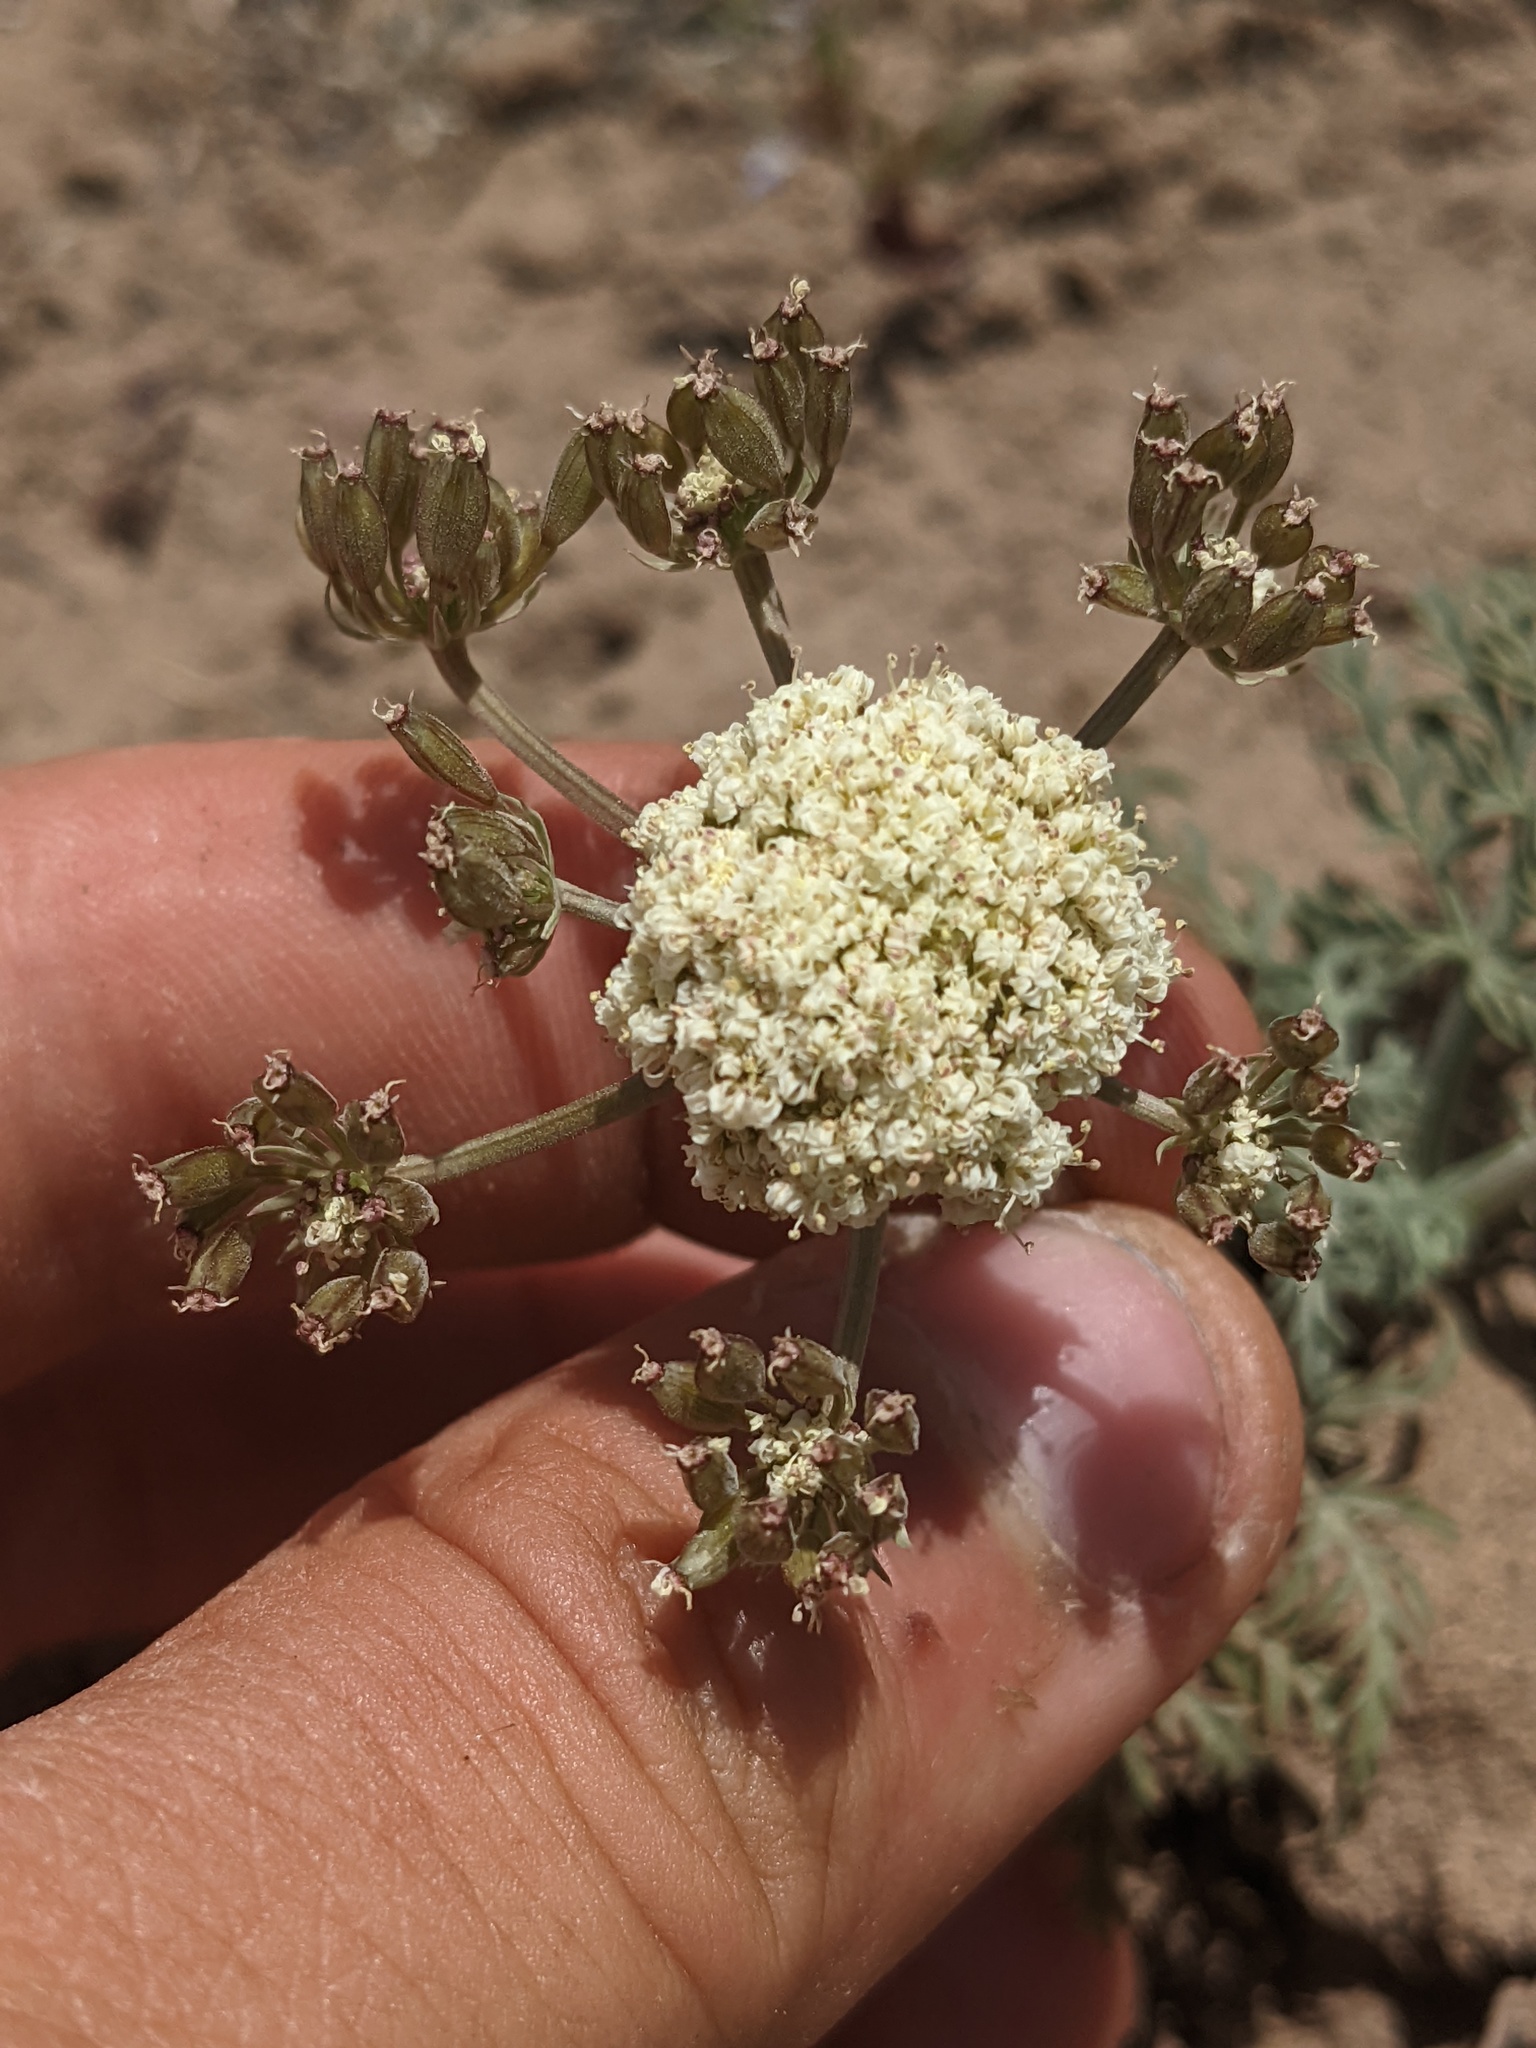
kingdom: Plantae
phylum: Tracheophyta
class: Magnoliopsida
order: Apiales
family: Apiaceae
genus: Lomatium
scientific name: Lomatium nevadense
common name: Nevada lomatium
